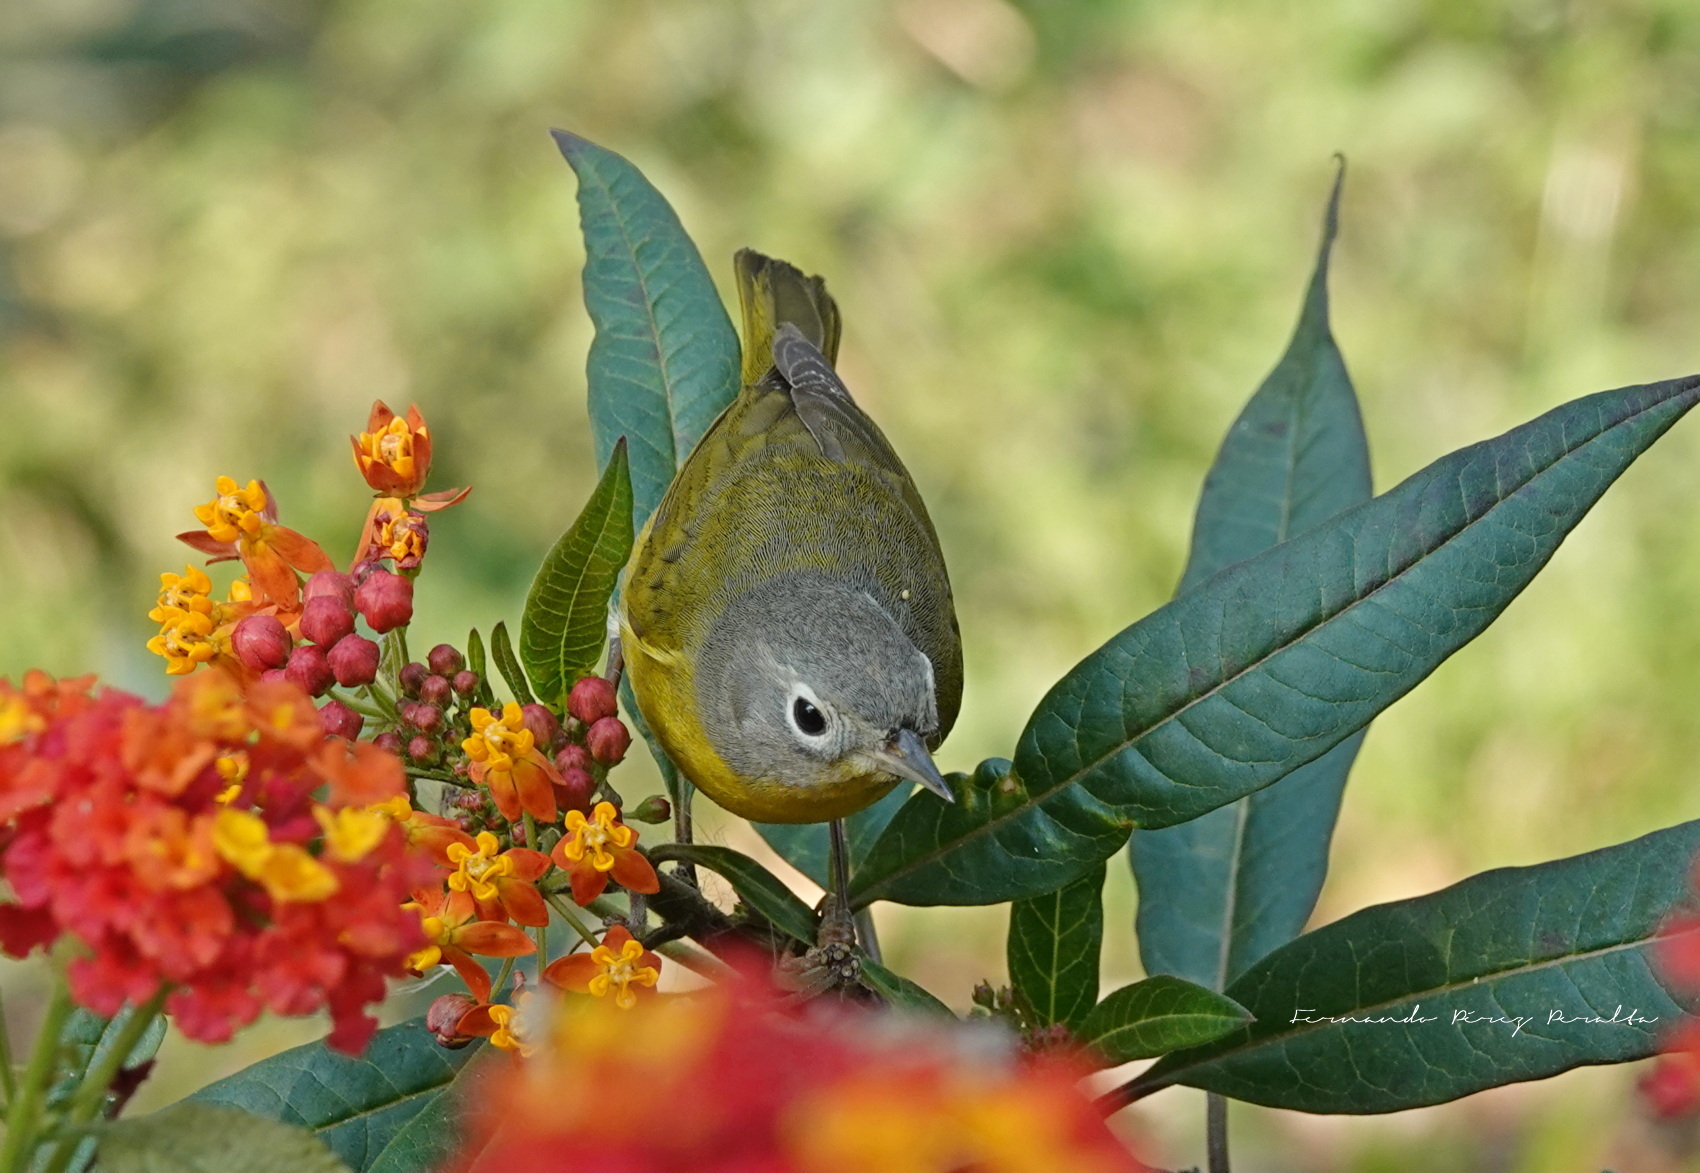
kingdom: Animalia
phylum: Chordata
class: Aves
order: Passeriformes
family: Parulidae
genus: Leiothlypis
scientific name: Leiothlypis ruficapilla
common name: Nashville warbler
